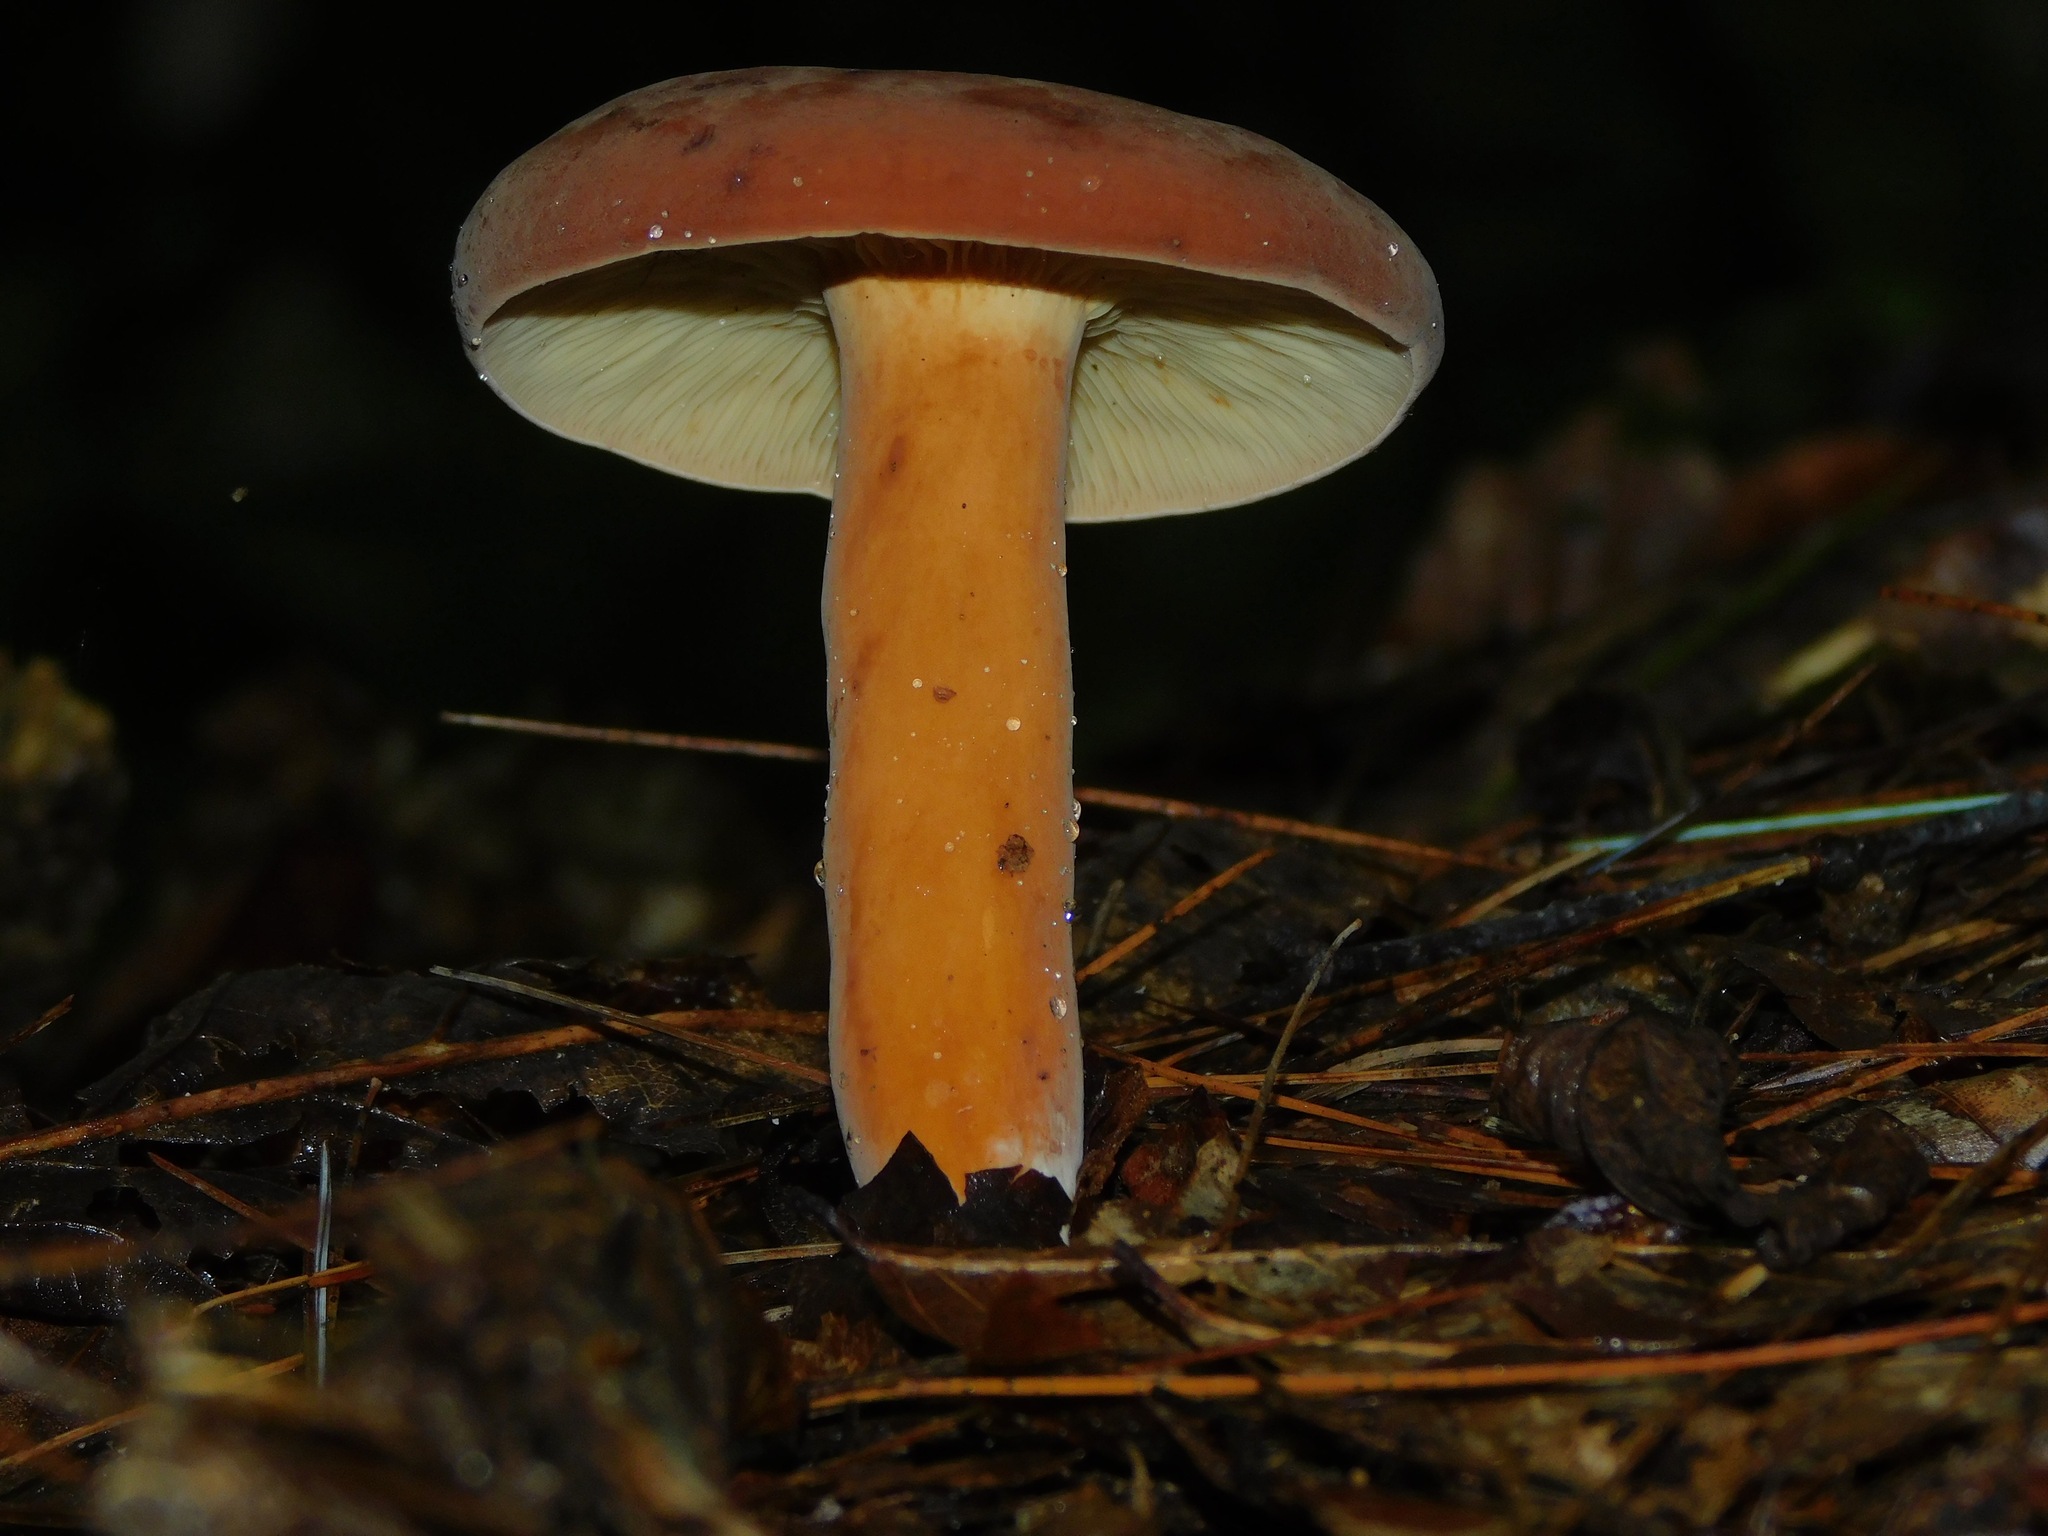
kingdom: Fungi
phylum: Basidiomycota
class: Agaricomycetes
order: Russulales
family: Russulaceae
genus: Lactifluus
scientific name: Lactifluus volemus
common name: Fishy milkcap
